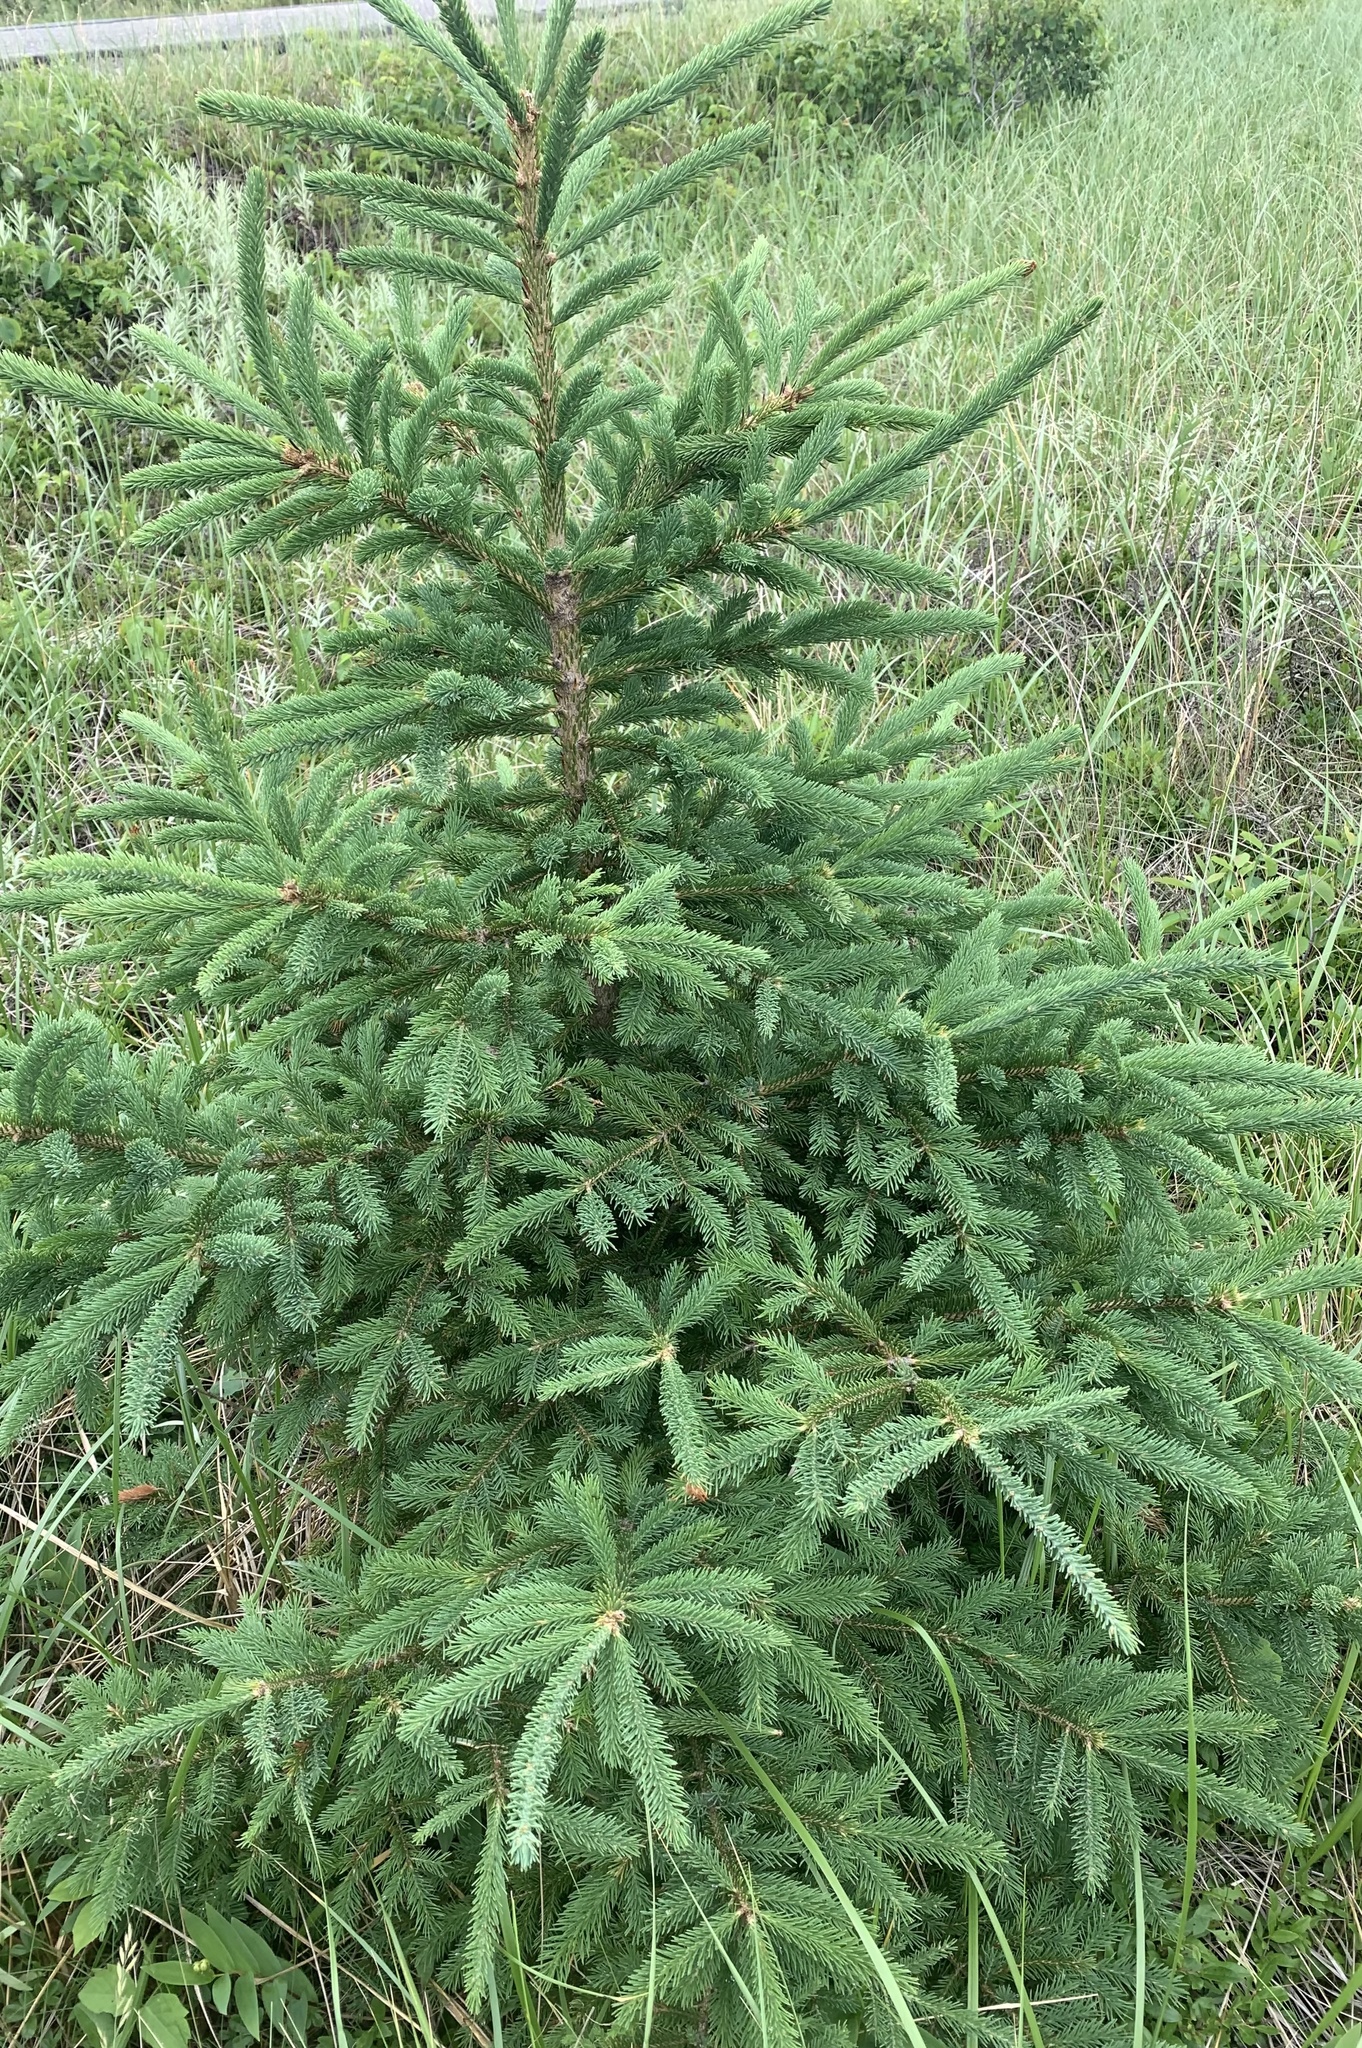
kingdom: Plantae
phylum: Tracheophyta
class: Pinopsida
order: Pinales
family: Pinaceae
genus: Picea
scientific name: Picea glauca
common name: White spruce
